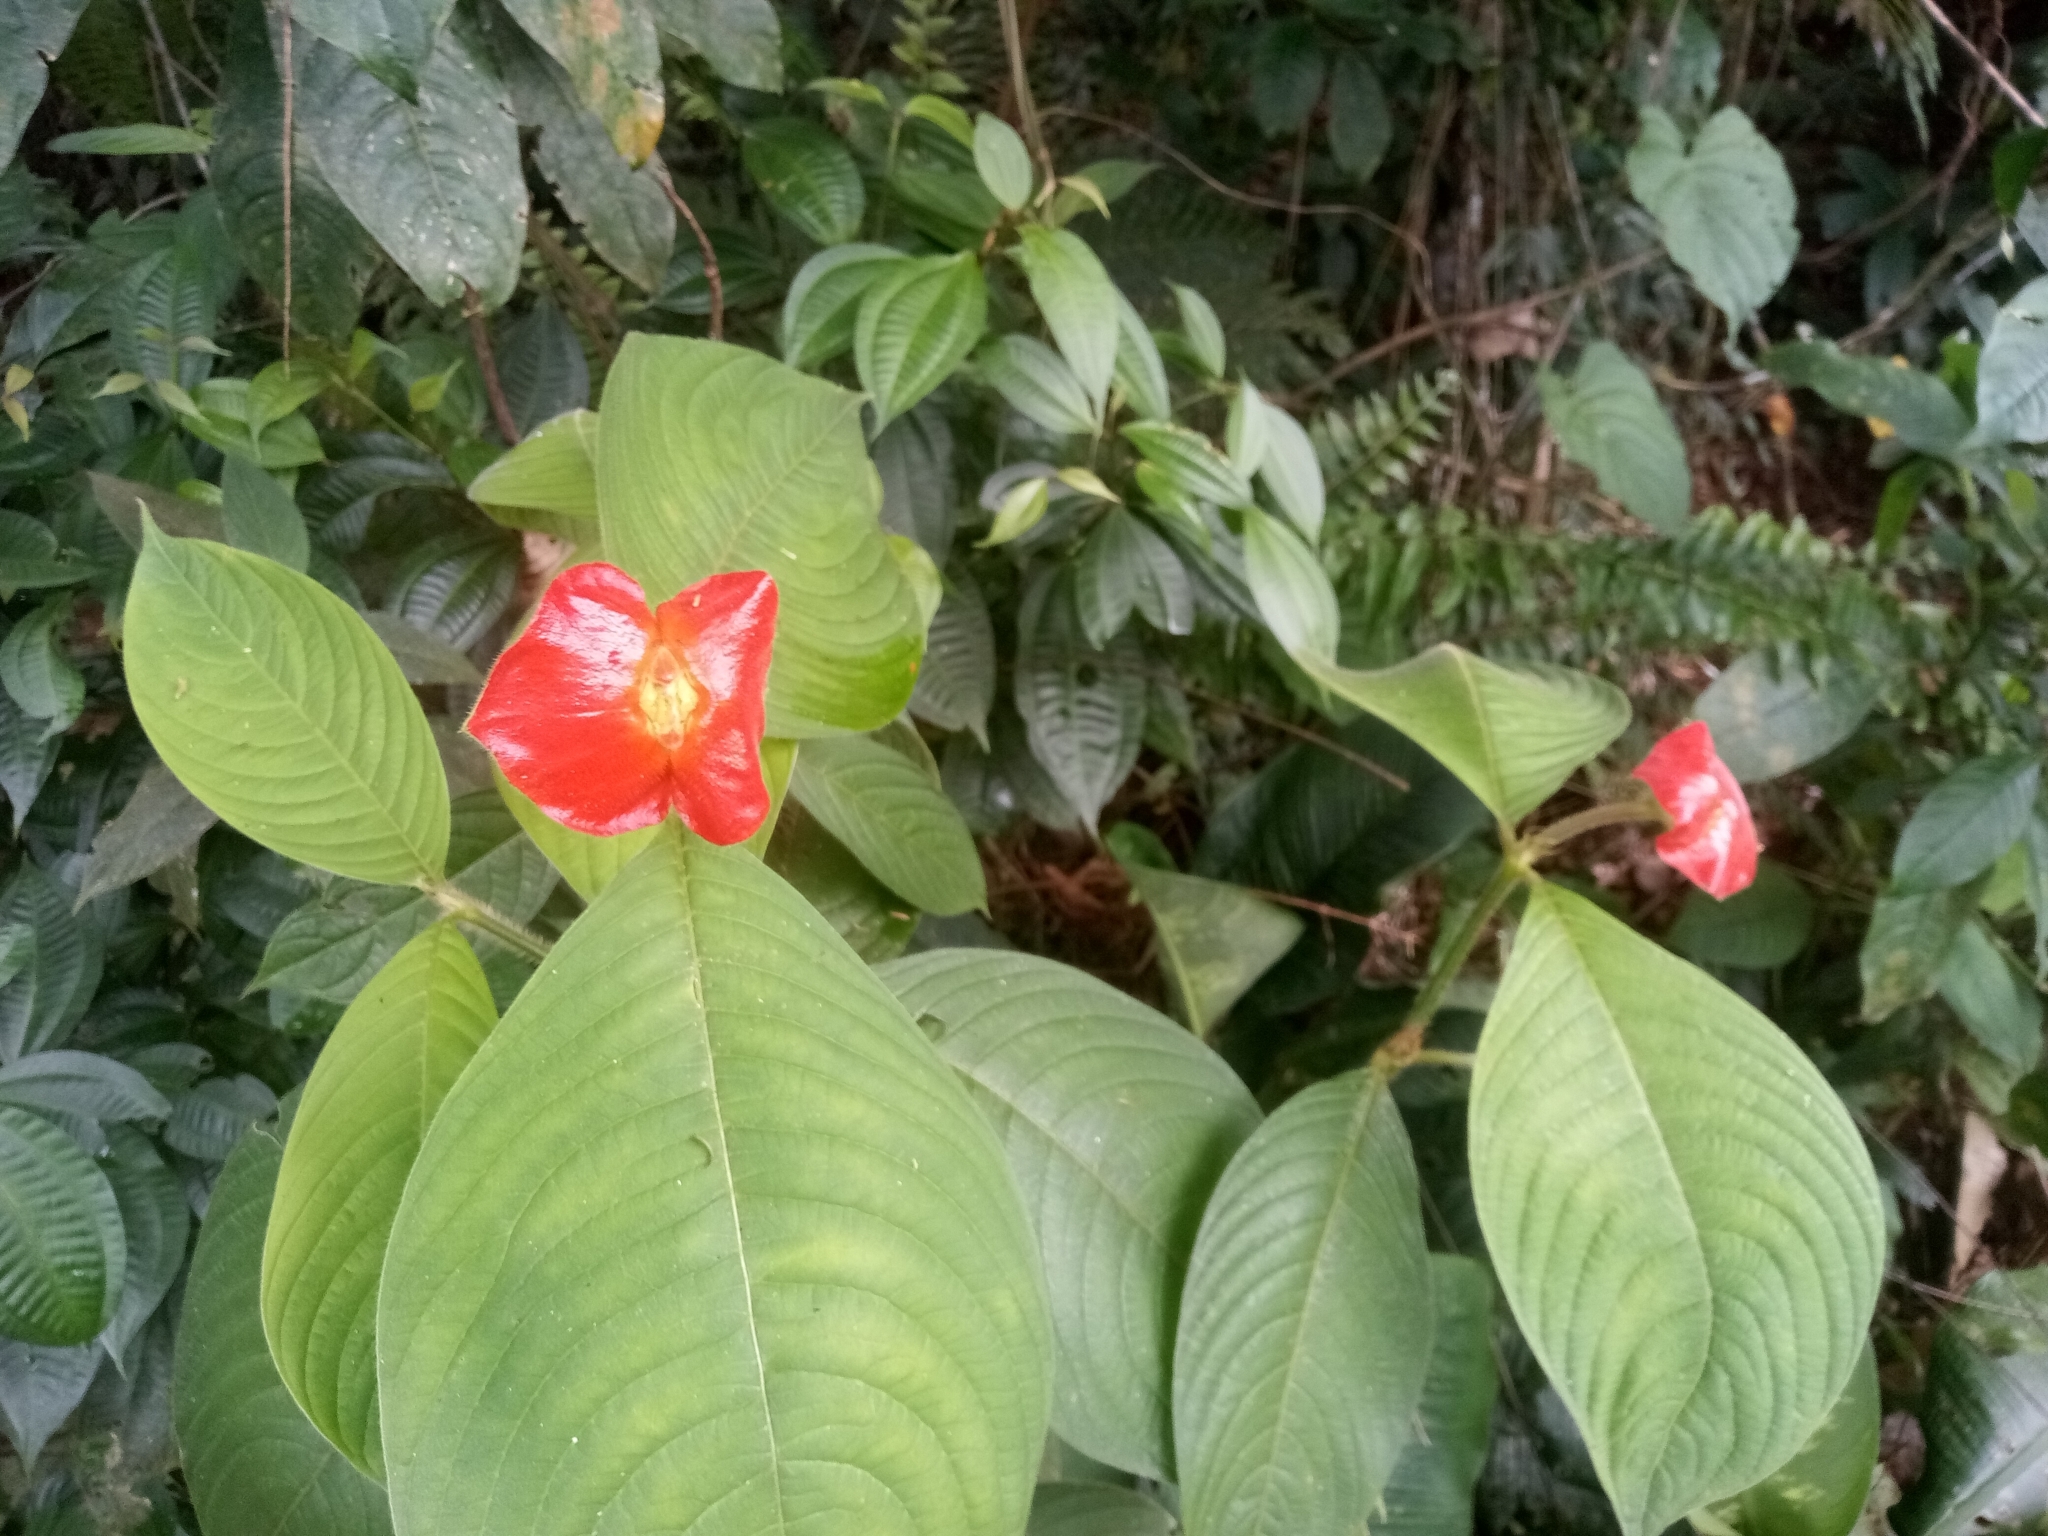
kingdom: Plantae
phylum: Tracheophyta
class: Magnoliopsida
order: Gentianales
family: Rubiaceae
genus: Palicourea
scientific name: Palicourea tomentosa
